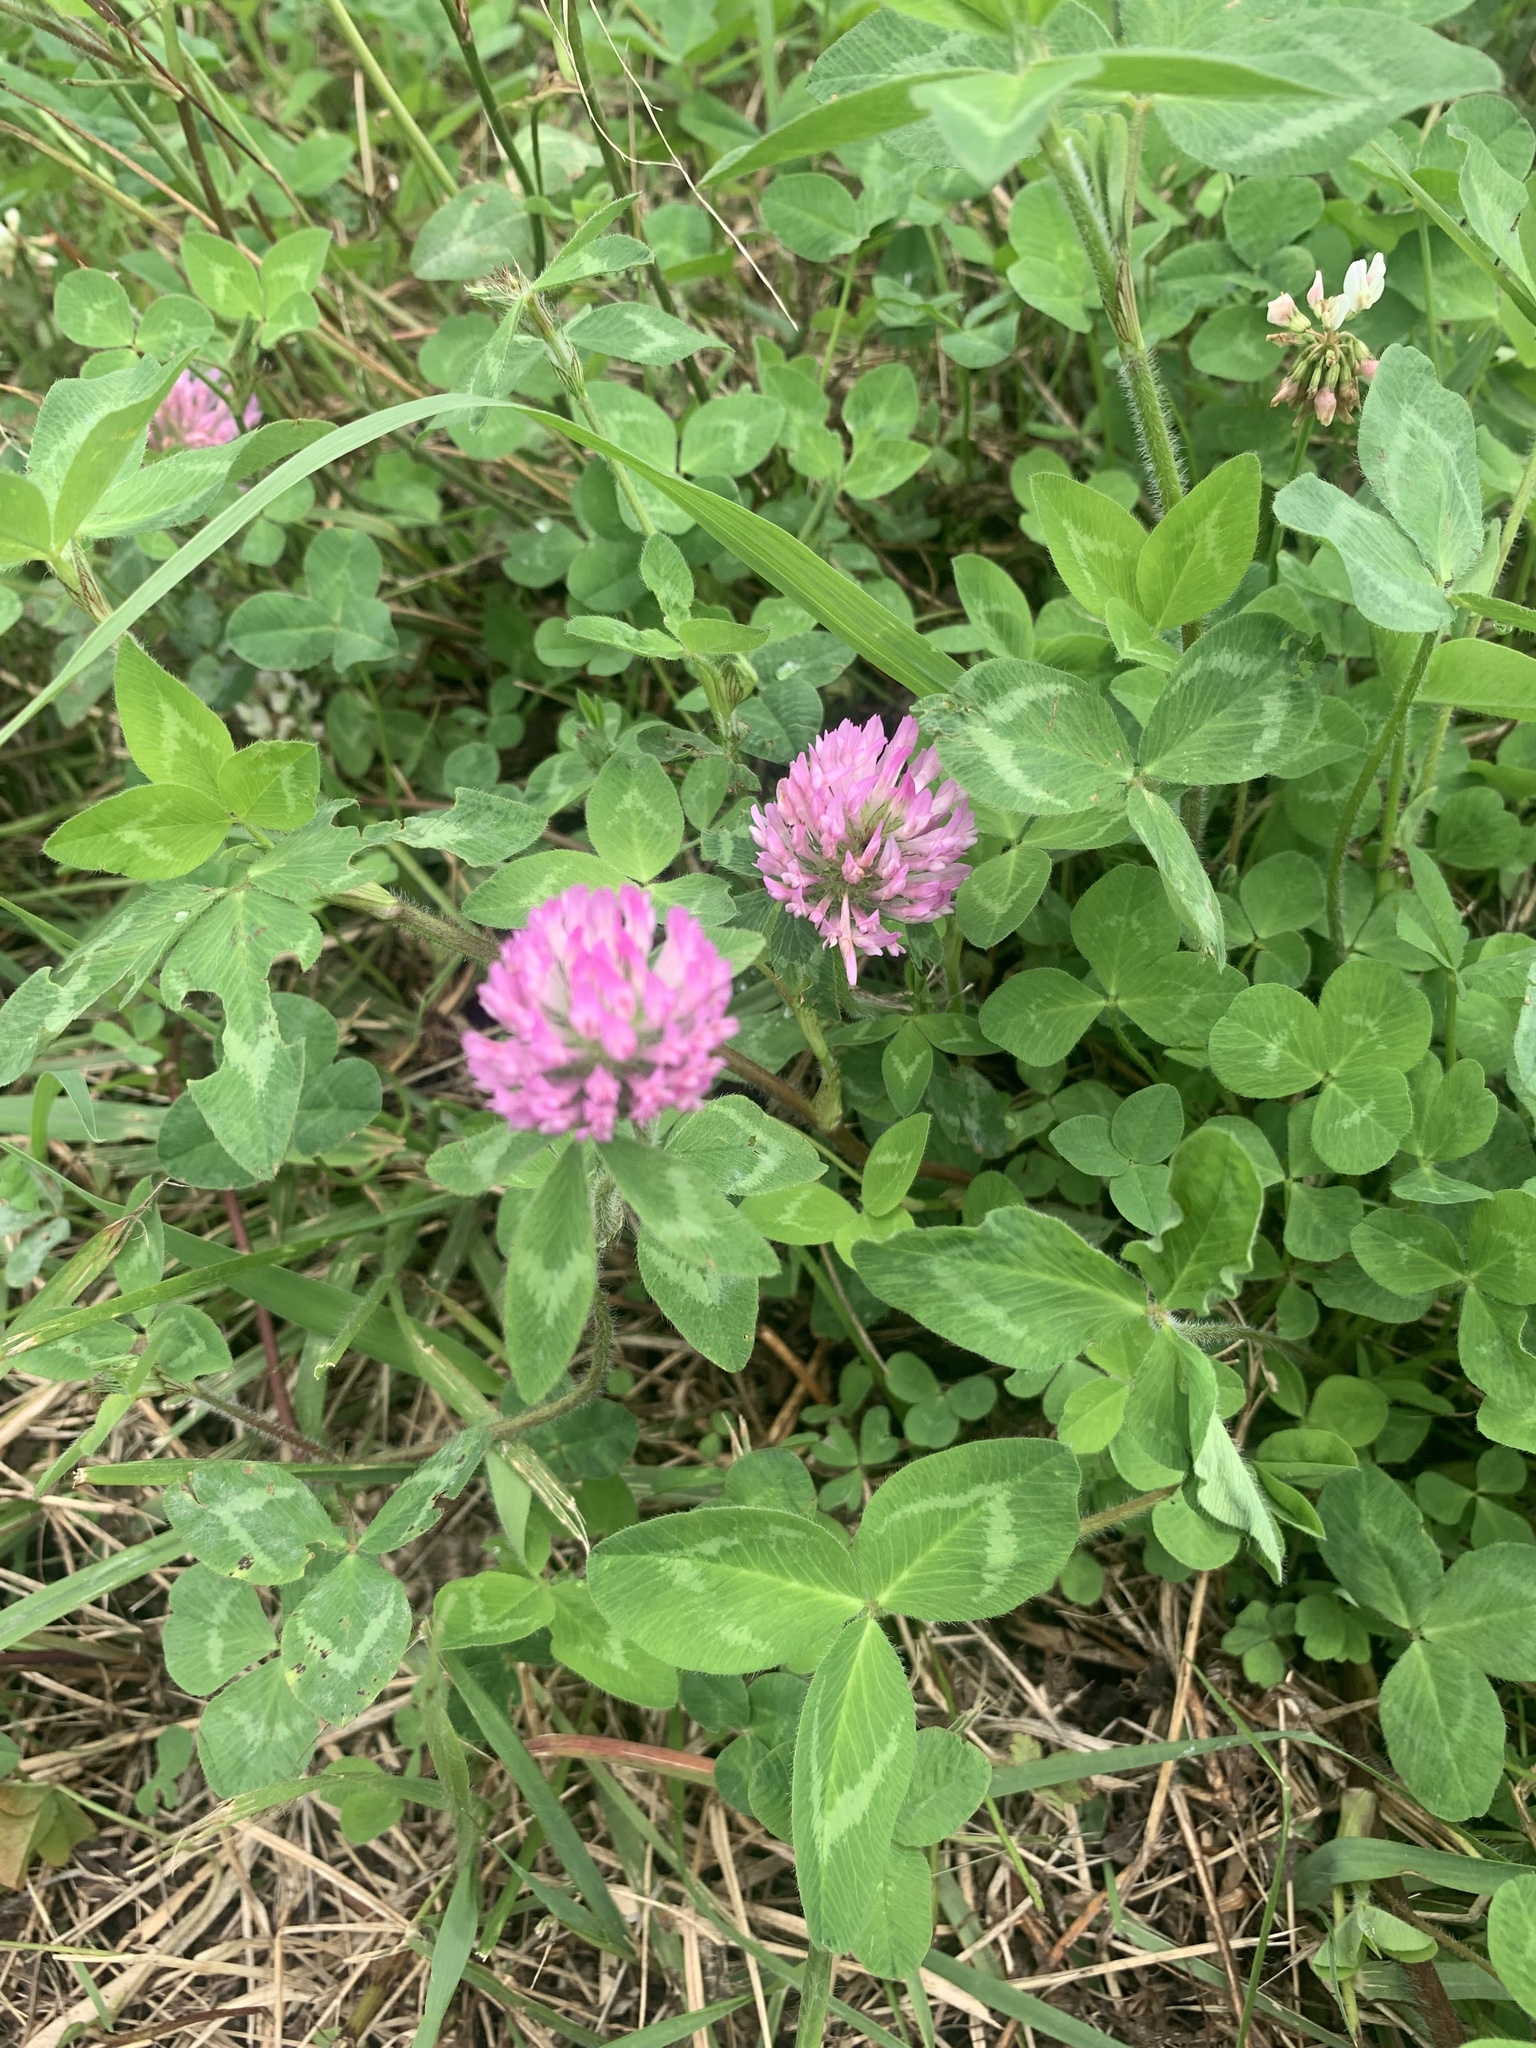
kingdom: Plantae
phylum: Tracheophyta
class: Magnoliopsida
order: Fabales
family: Fabaceae
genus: Trifolium
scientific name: Trifolium pratense
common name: Red clover
